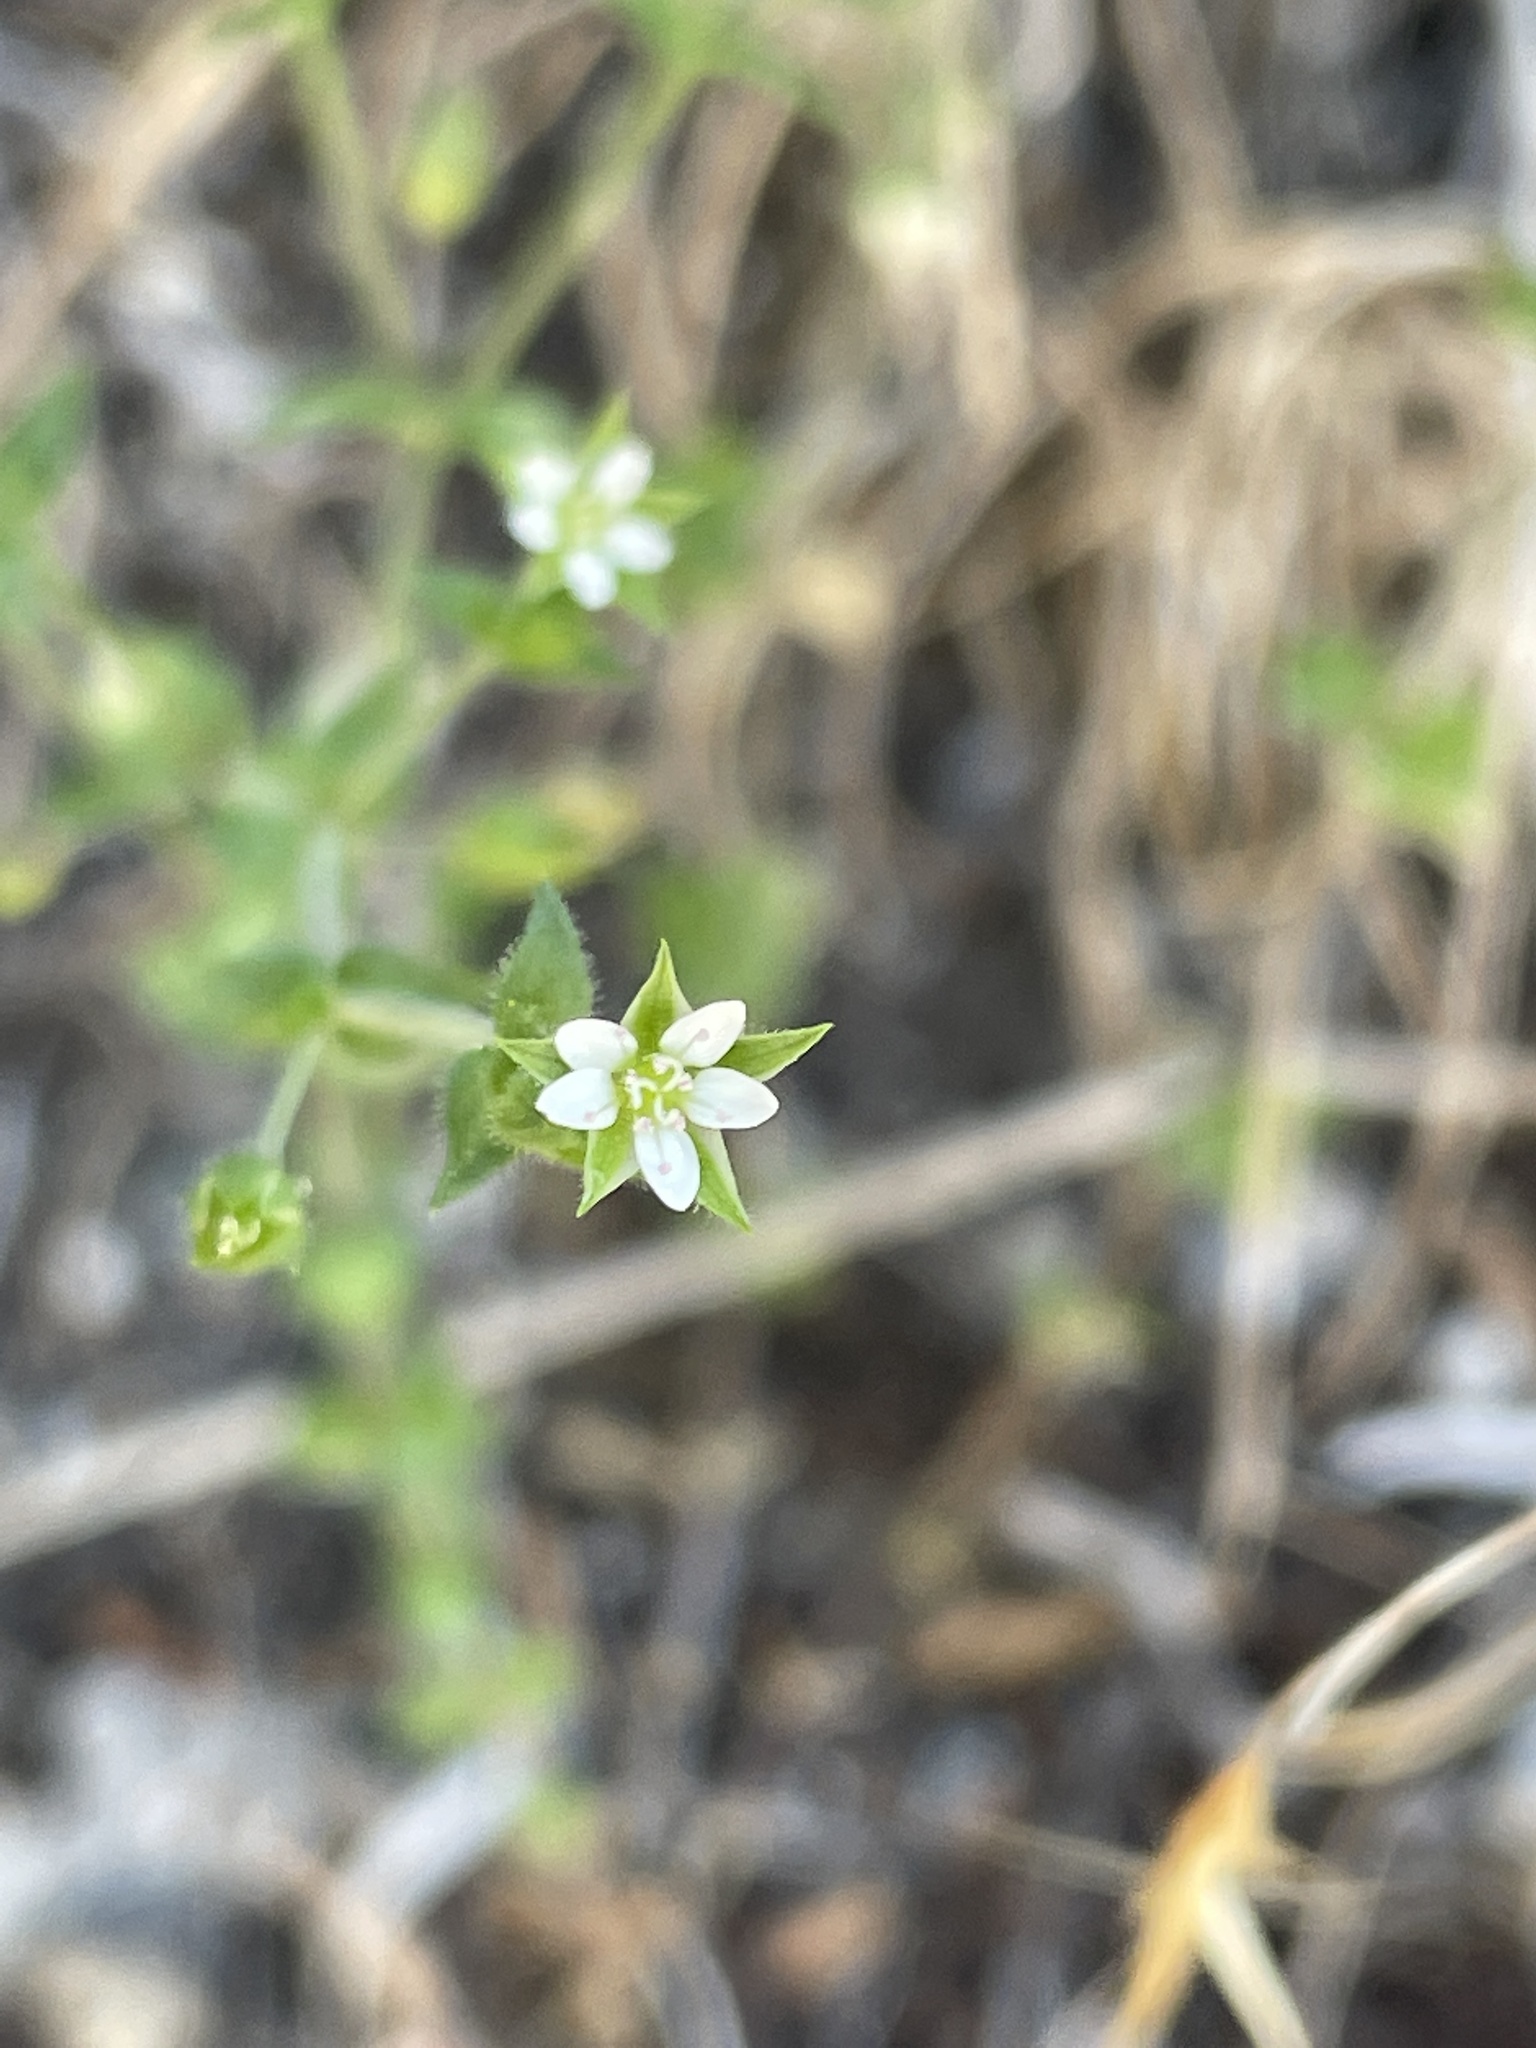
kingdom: Plantae
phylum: Tracheophyta
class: Magnoliopsida
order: Caryophyllales
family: Caryophyllaceae
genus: Arenaria
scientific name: Arenaria serpyllifolia
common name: Thyme-leaved sandwort
